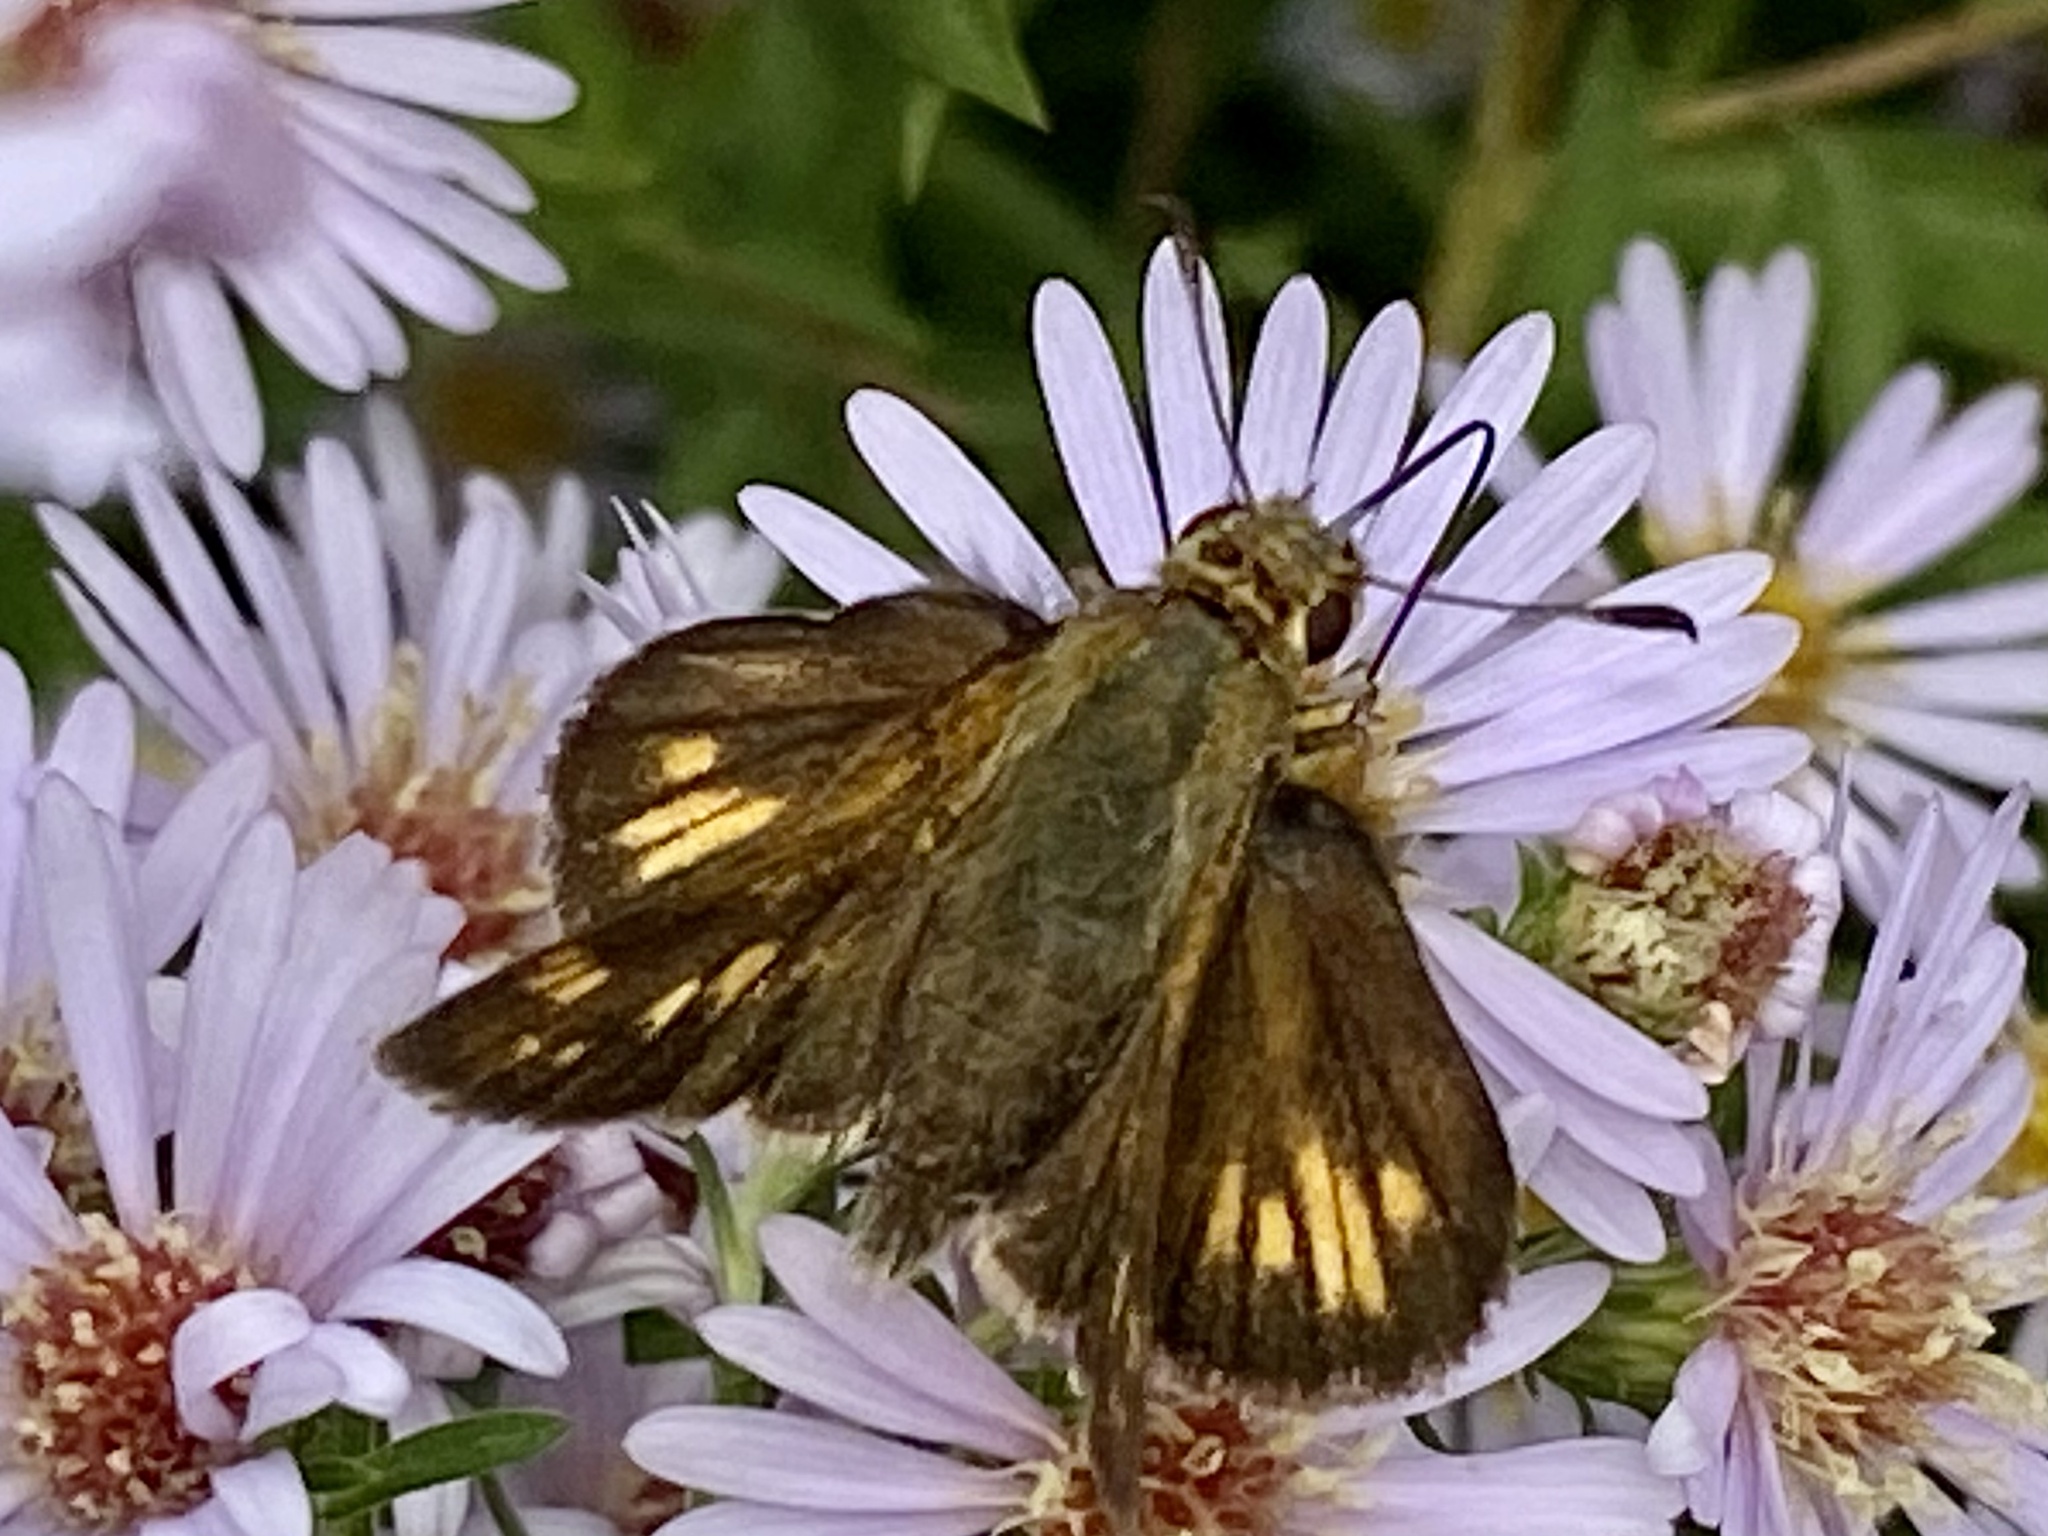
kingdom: Animalia
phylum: Arthropoda
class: Insecta
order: Lepidoptera
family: Hesperiidae
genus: Polites
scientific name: Polites coras
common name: Peck's skipper
